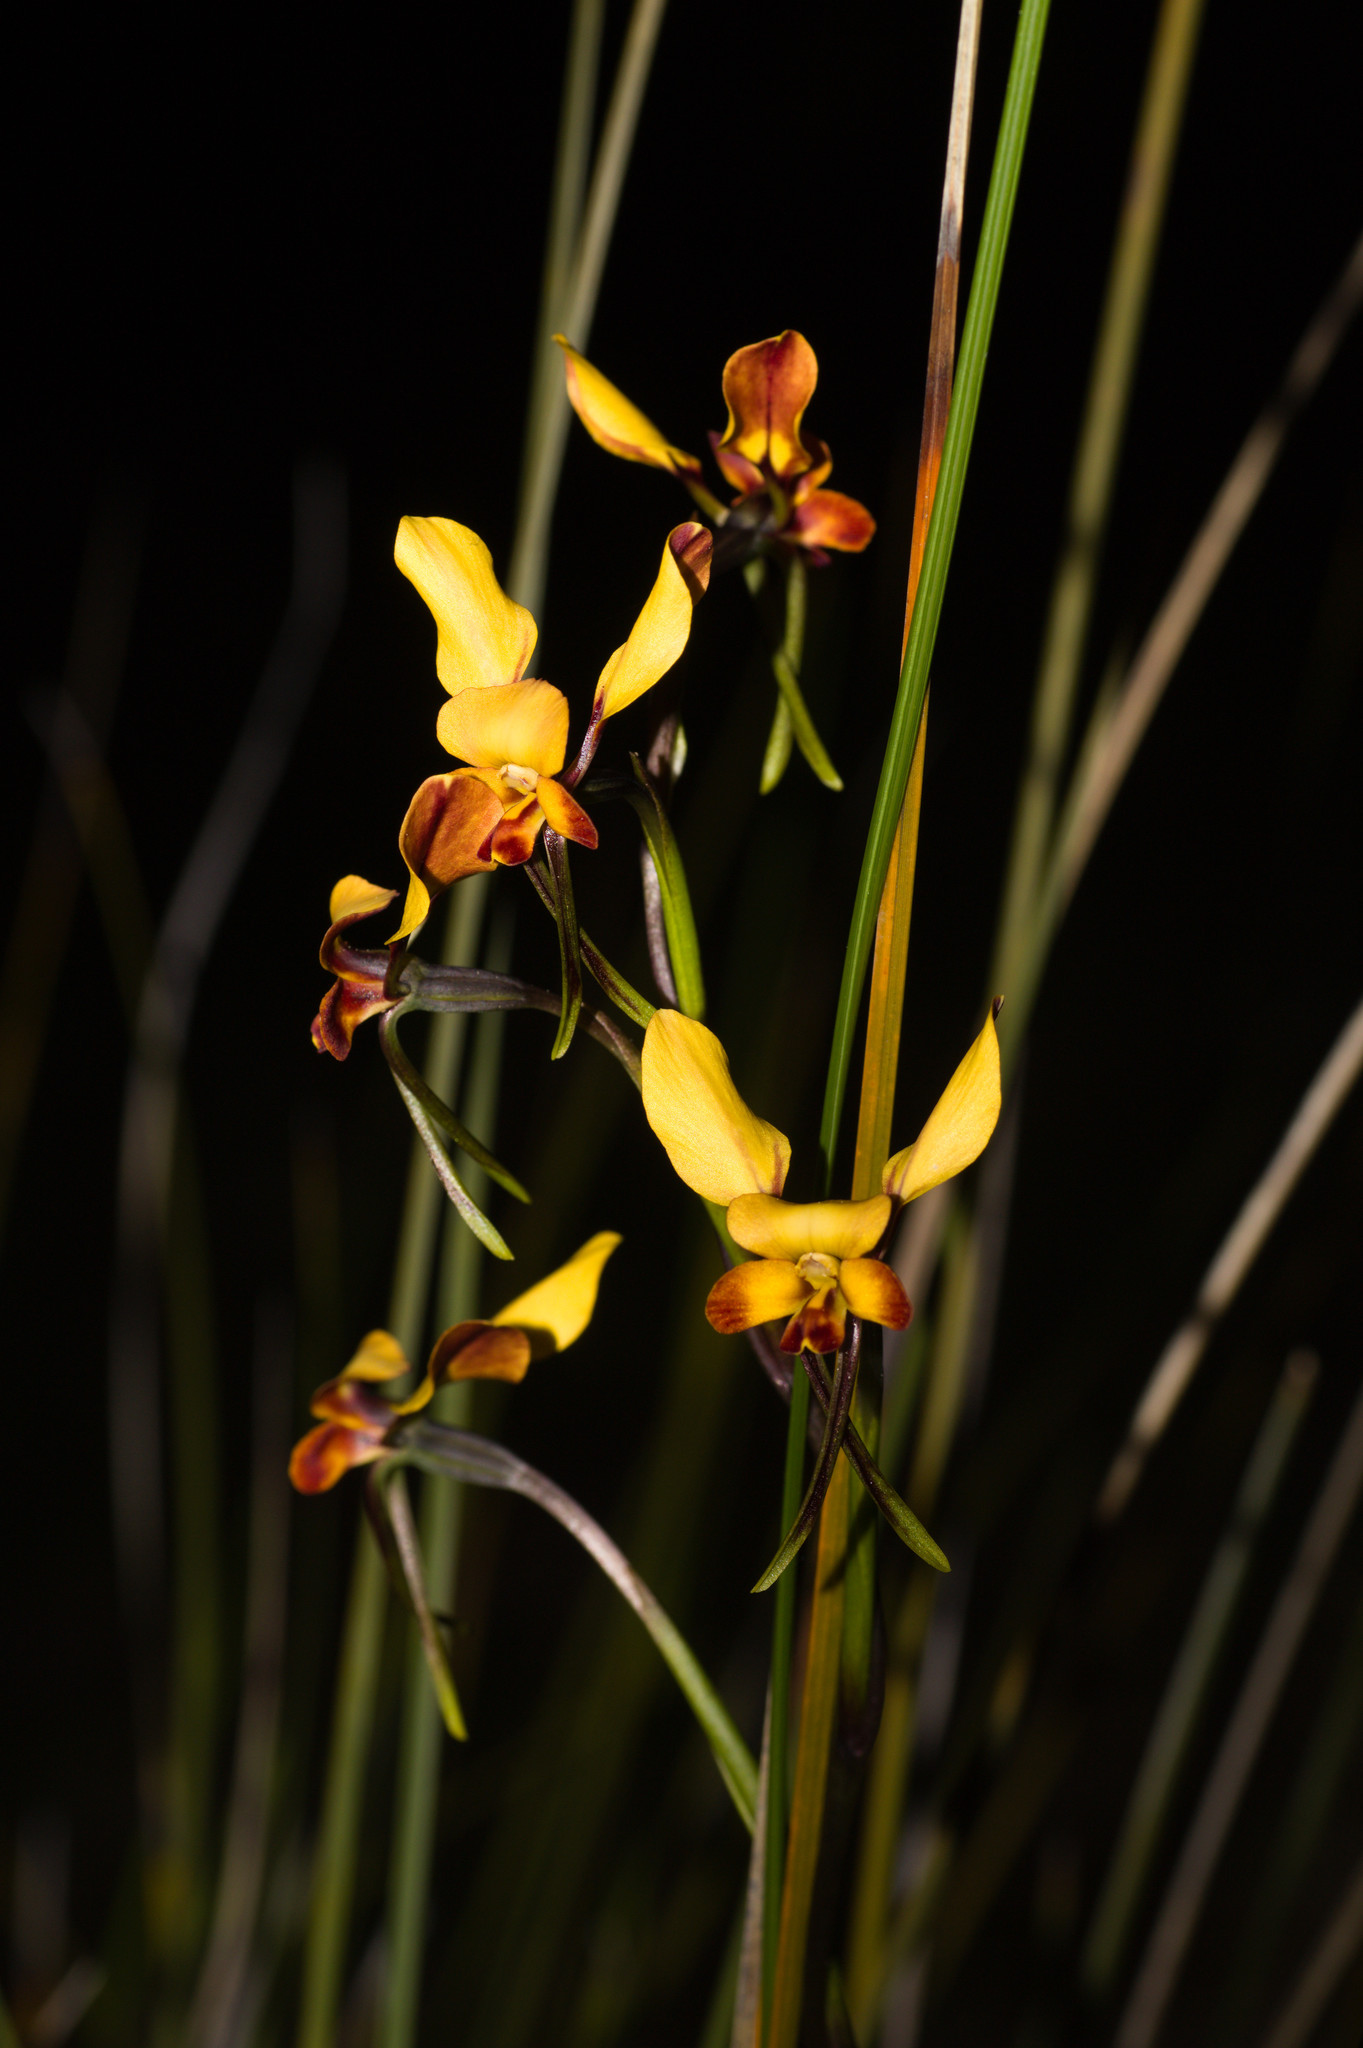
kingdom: Plantae
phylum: Tracheophyta
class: Liliopsida
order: Asparagales
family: Orchidaceae
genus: Diuris
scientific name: Diuris corymbosa
